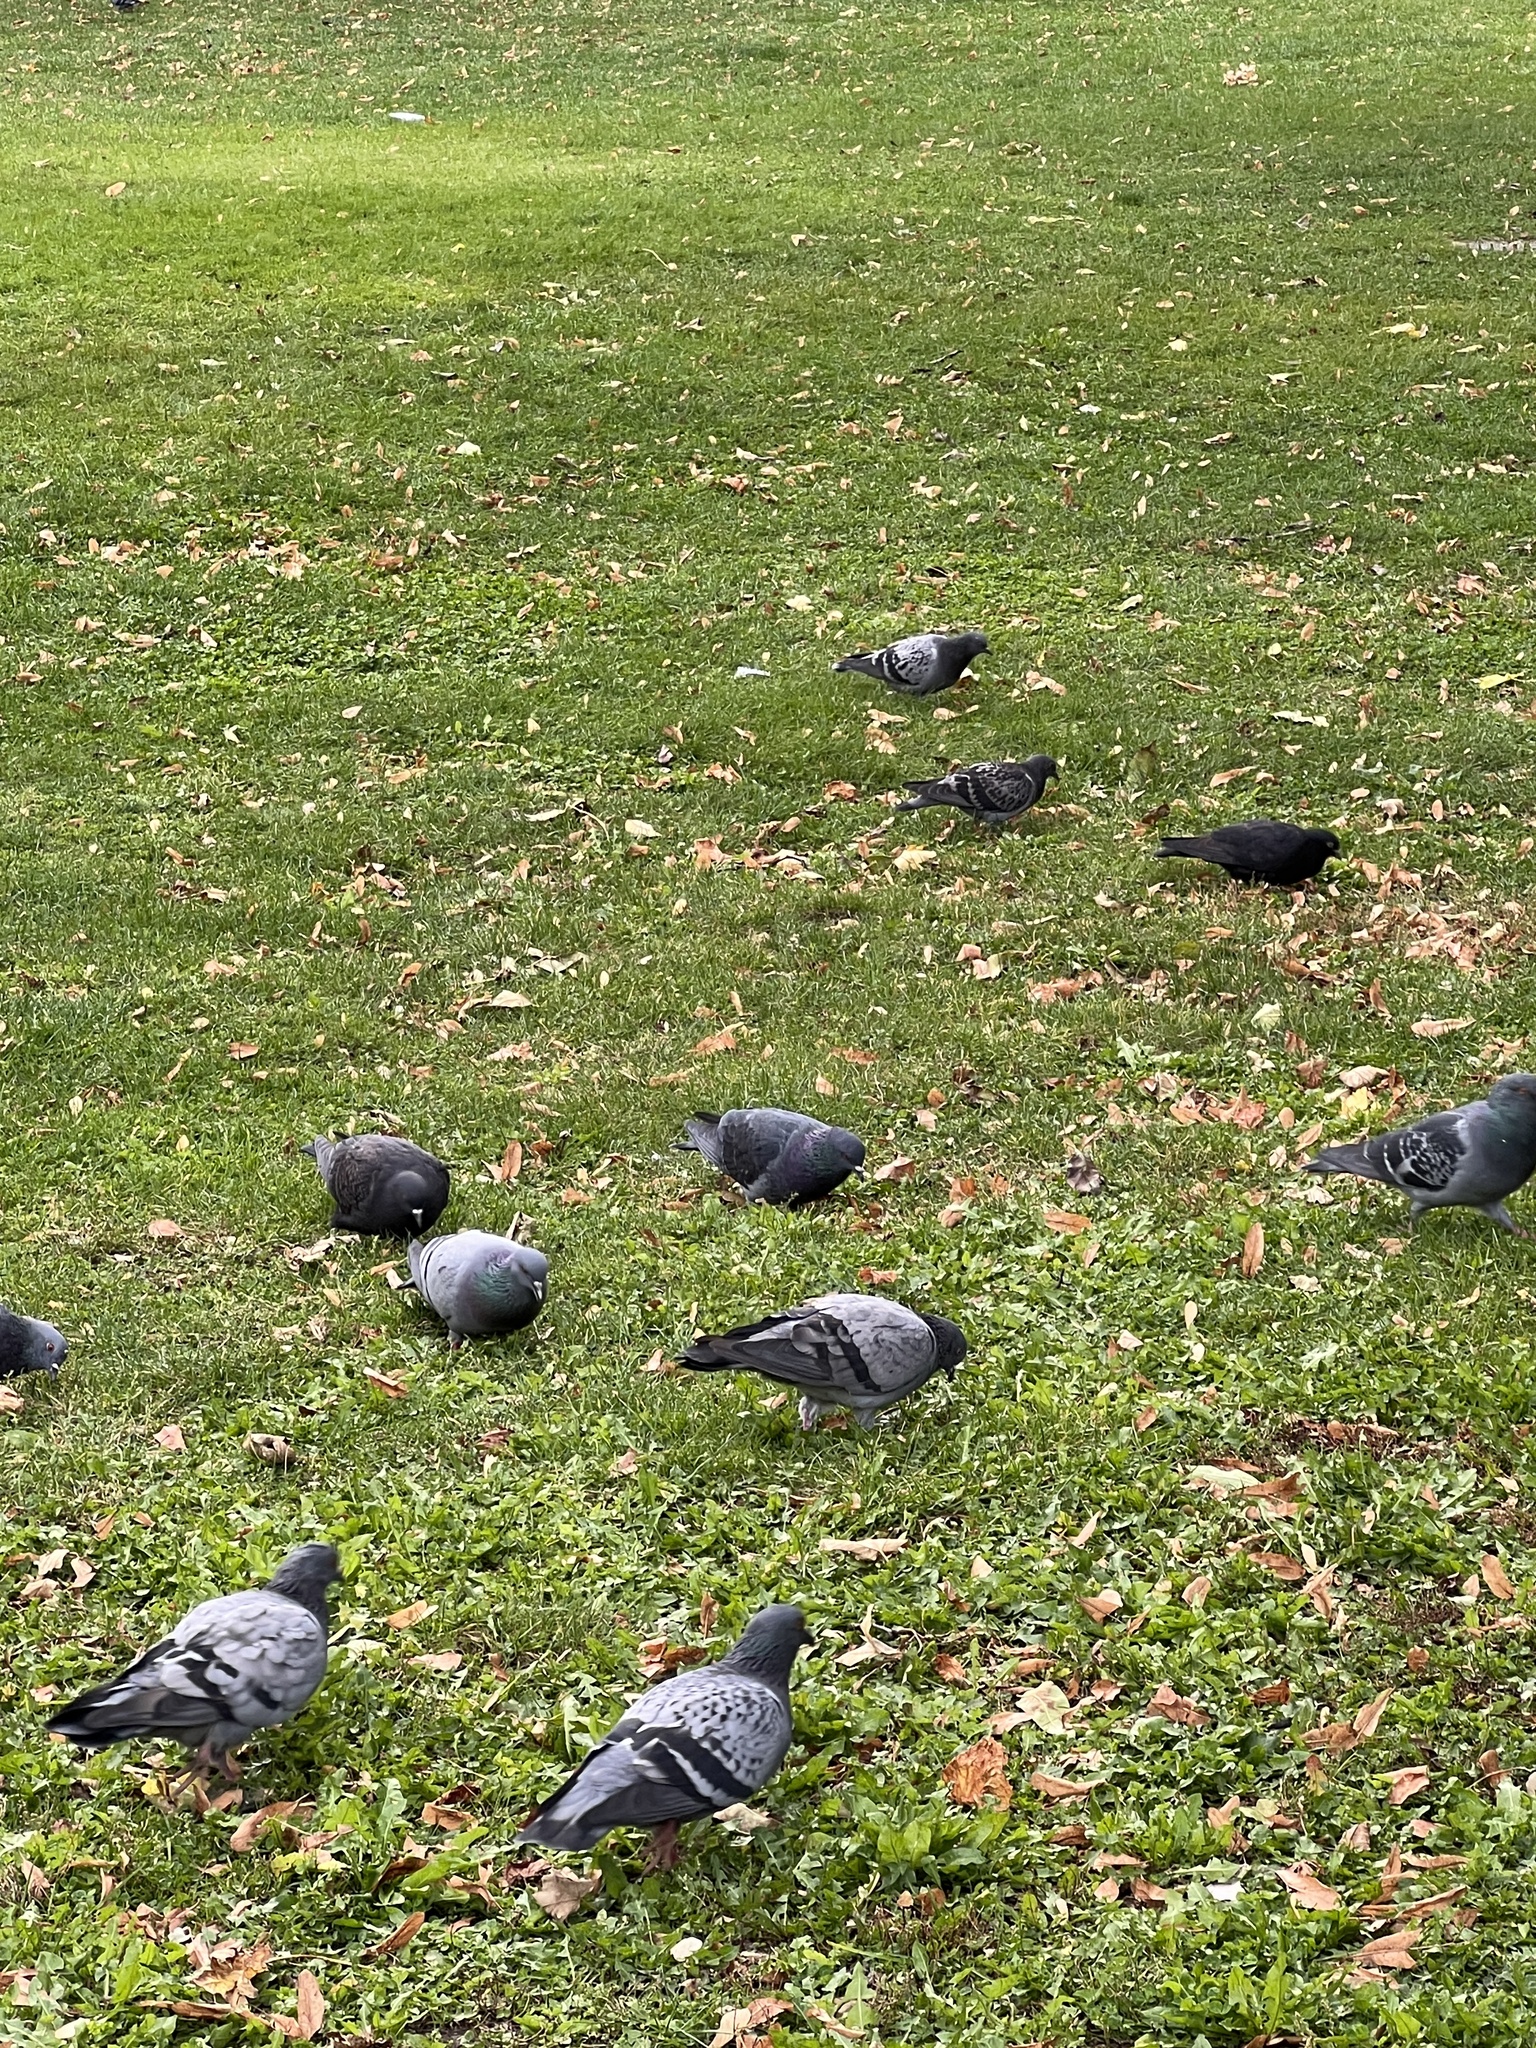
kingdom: Animalia
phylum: Chordata
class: Aves
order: Columbiformes
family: Columbidae
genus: Columba
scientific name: Columba livia
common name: Rock pigeon
